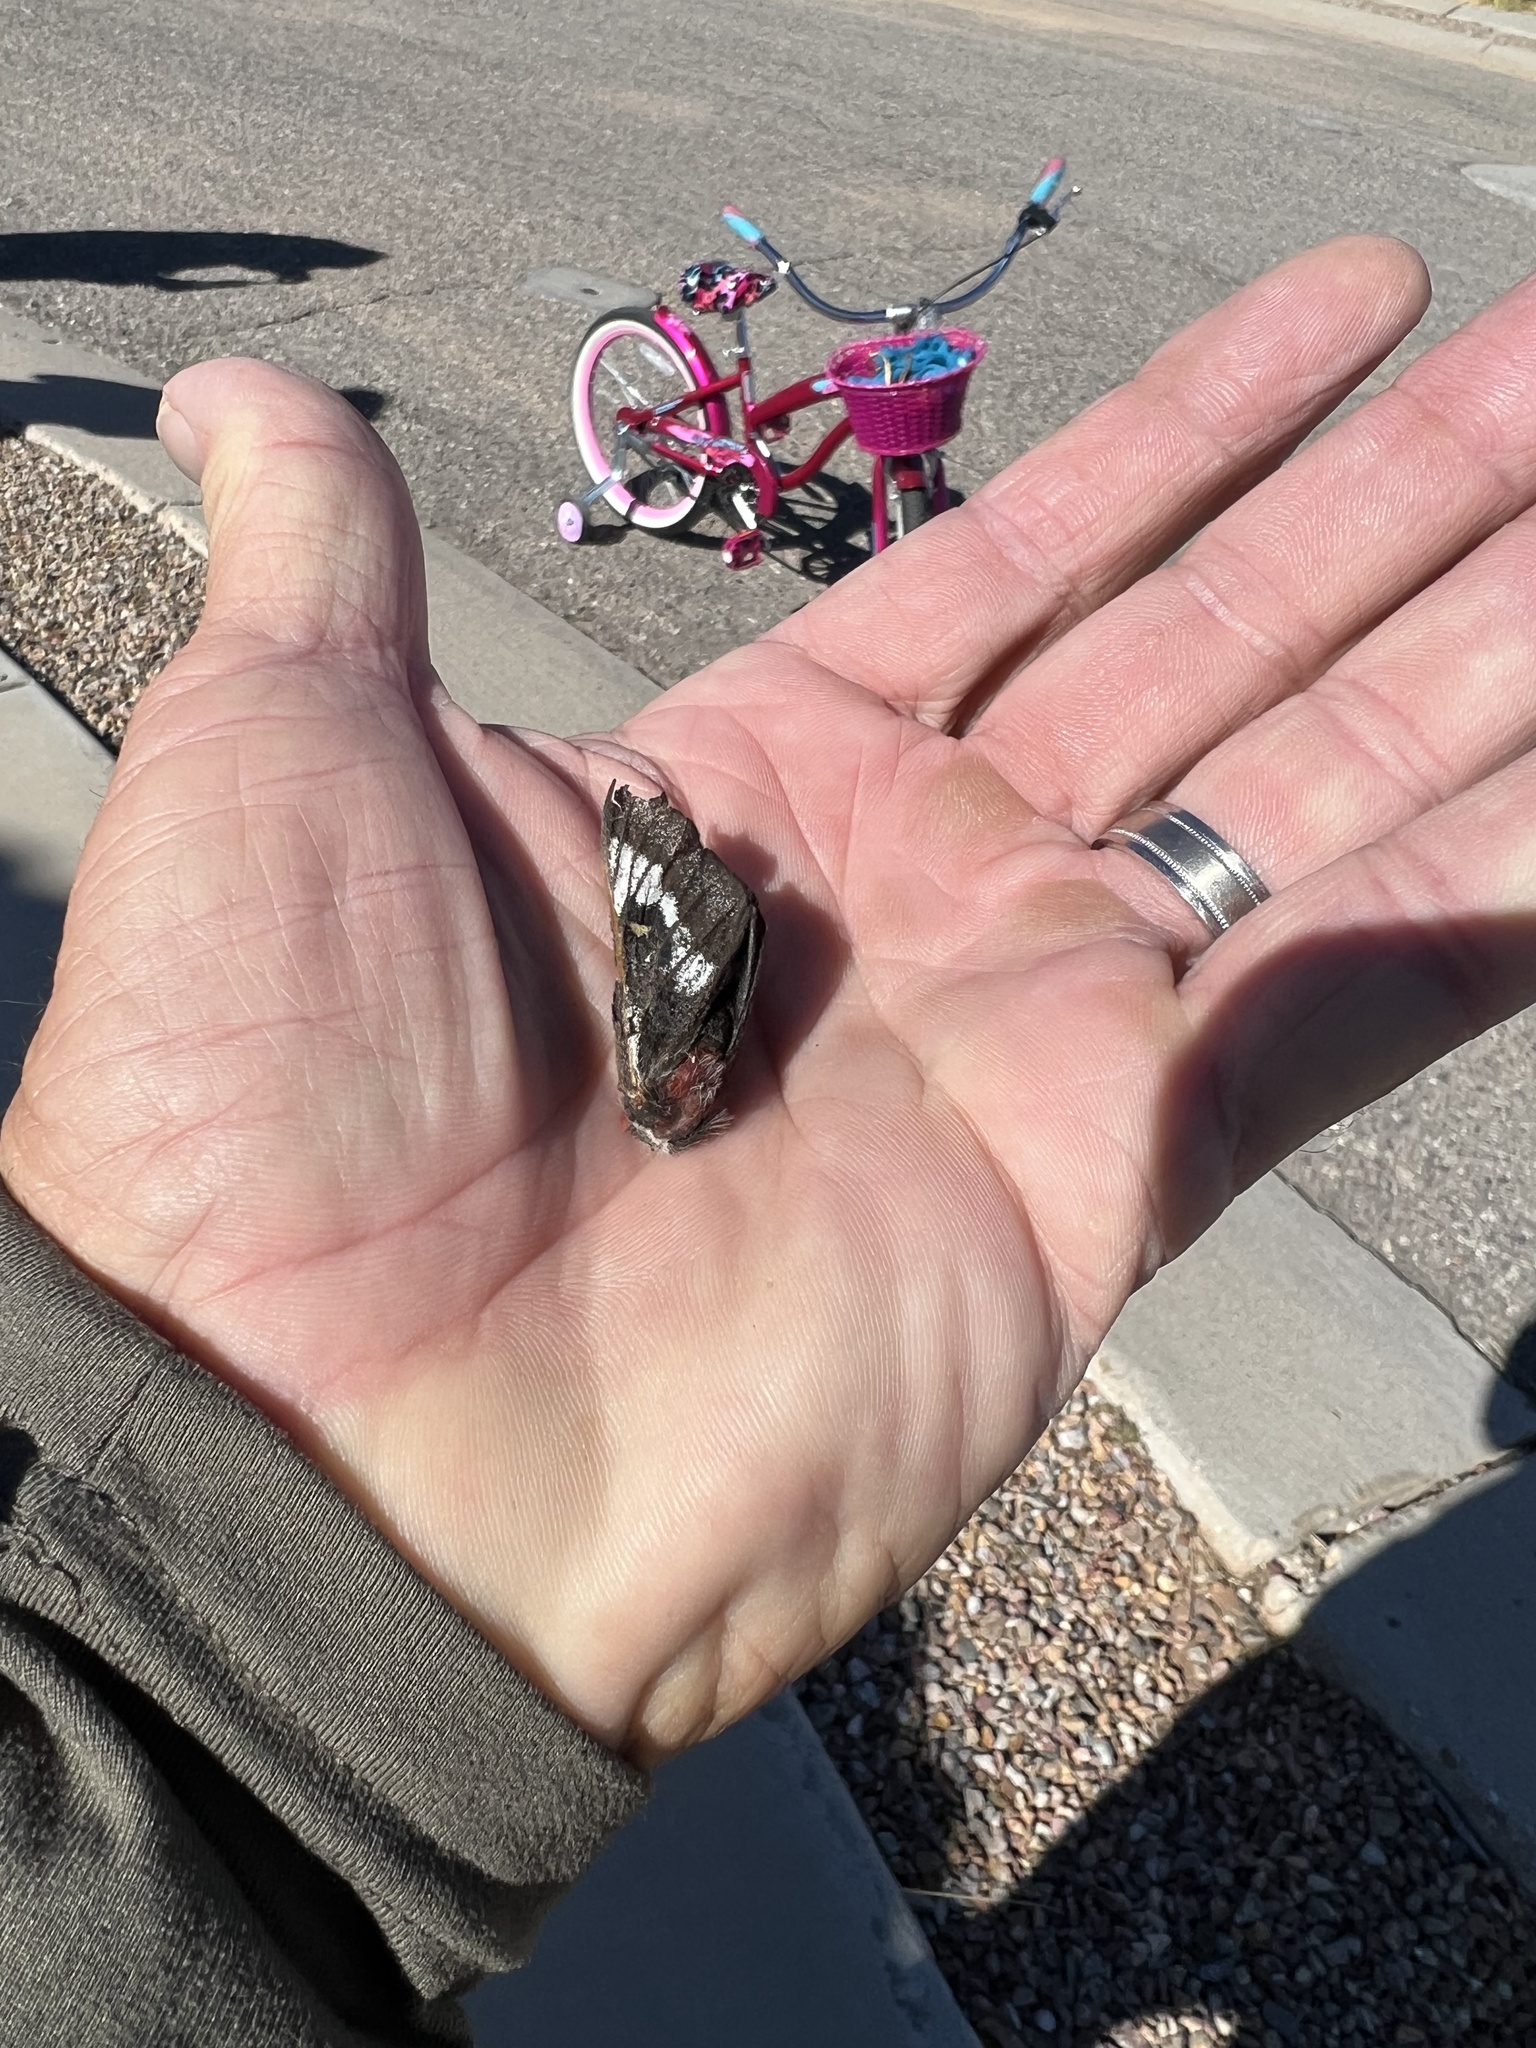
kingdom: Animalia
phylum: Arthropoda
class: Insecta
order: Lepidoptera
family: Saturniidae
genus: Hemileuca
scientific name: Hemileuca juno
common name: Juno buckmoth
